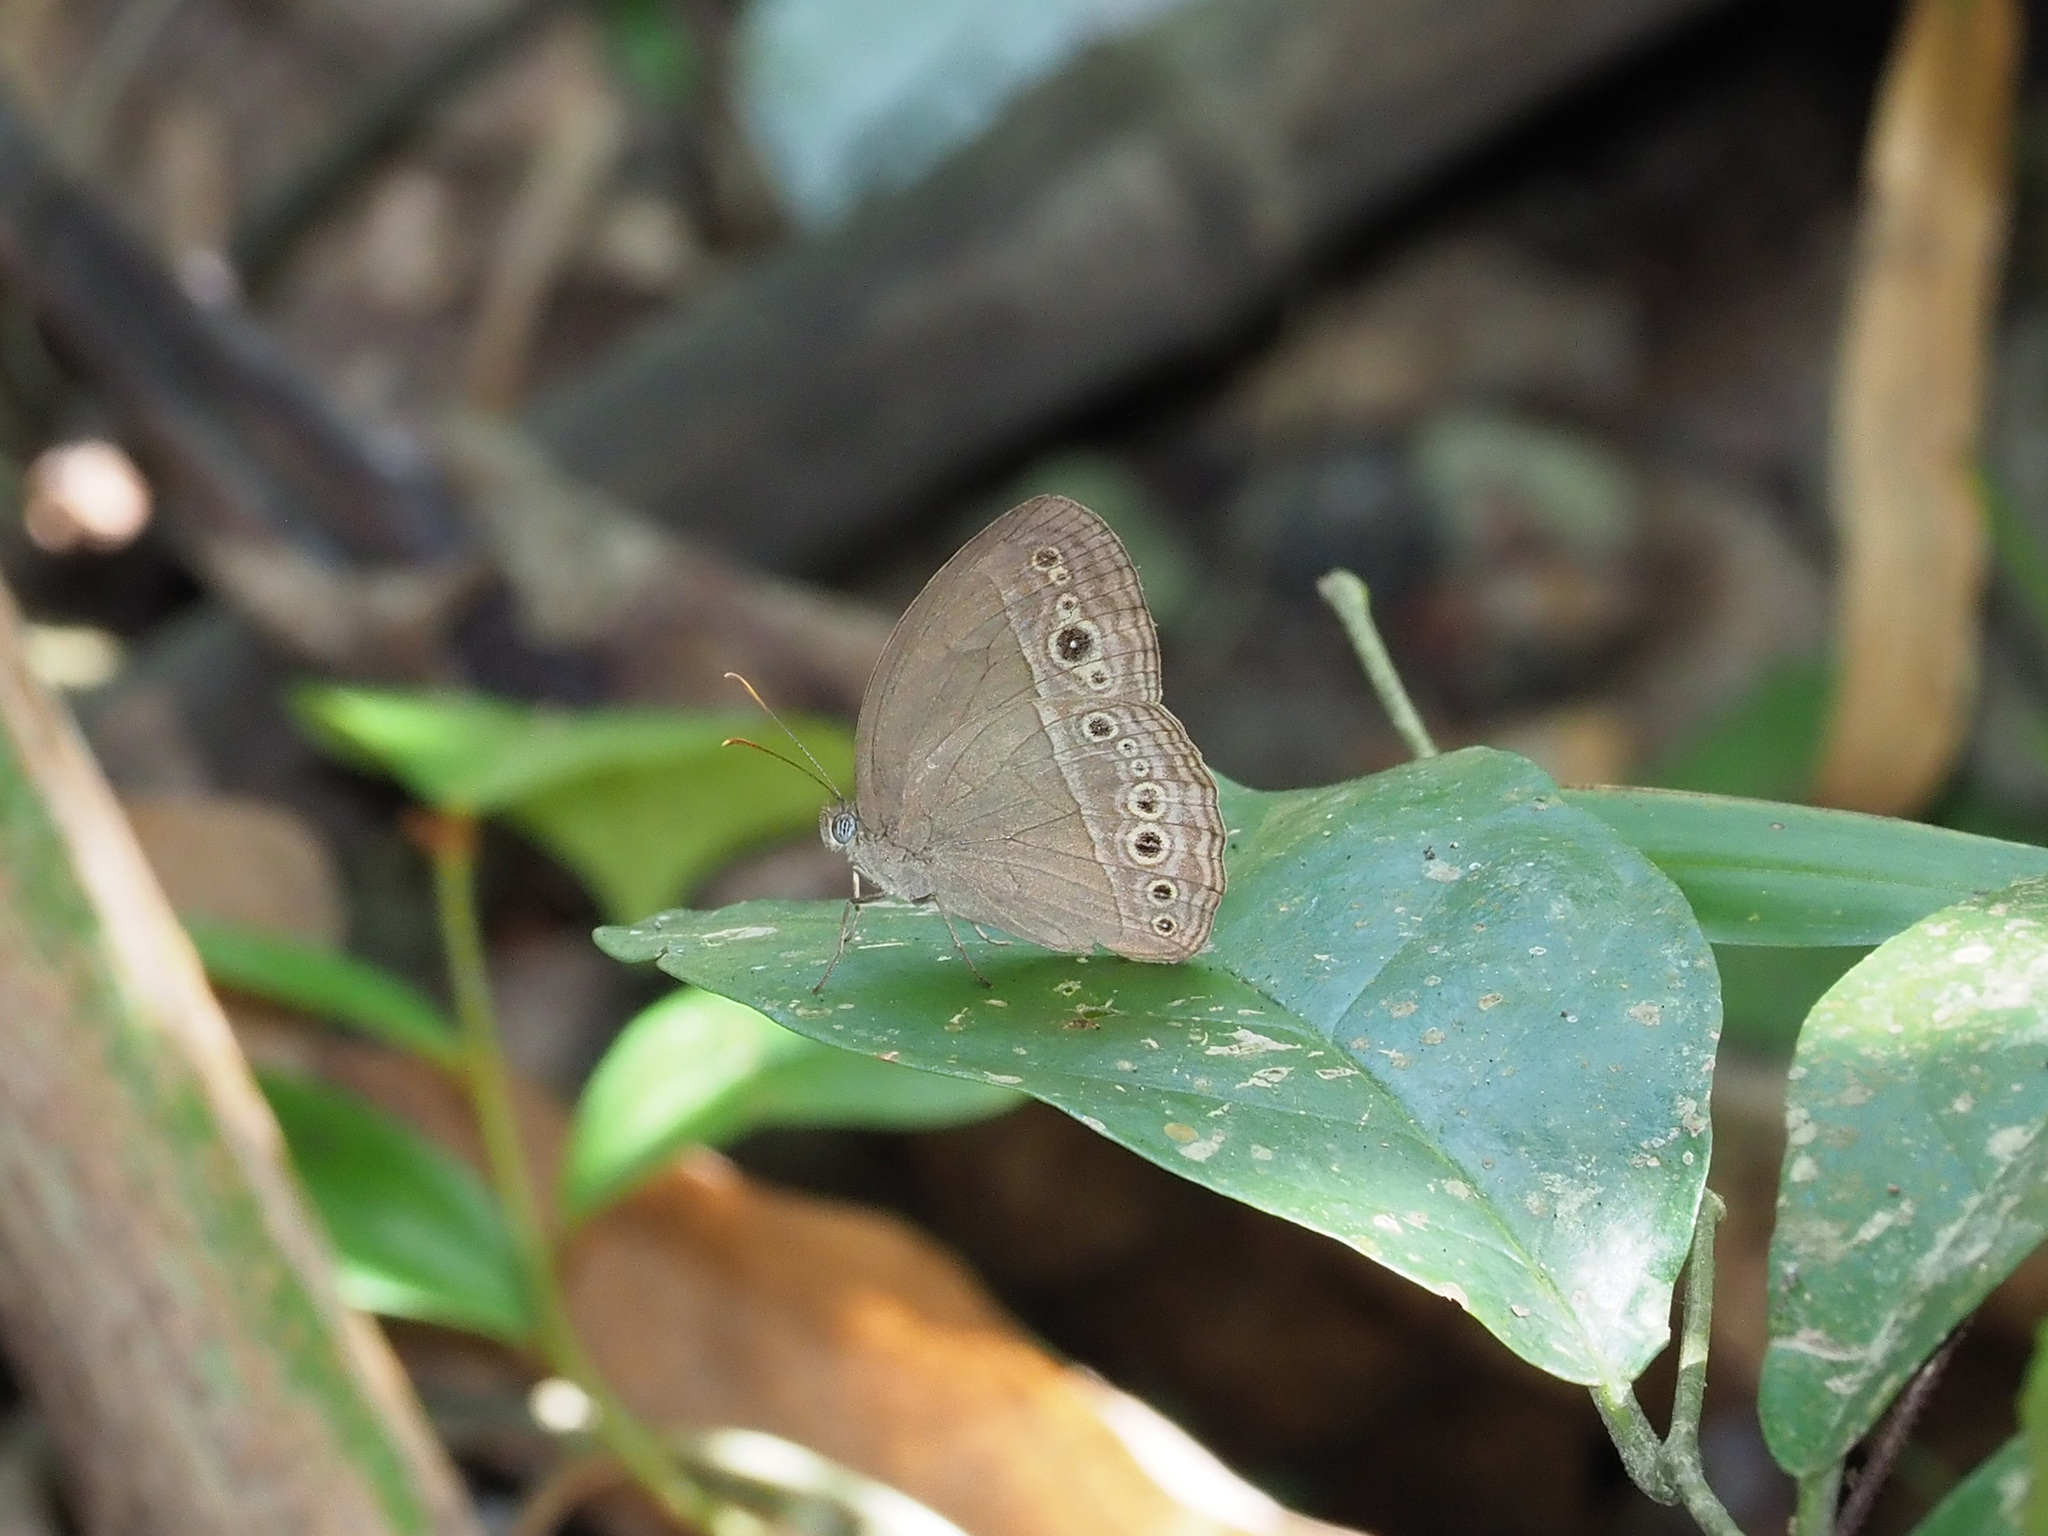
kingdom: Animalia
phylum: Arthropoda
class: Insecta
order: Lepidoptera
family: Nymphalidae
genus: Mycalesis
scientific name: Mycalesis perseoides
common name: Burmese bushbrown
